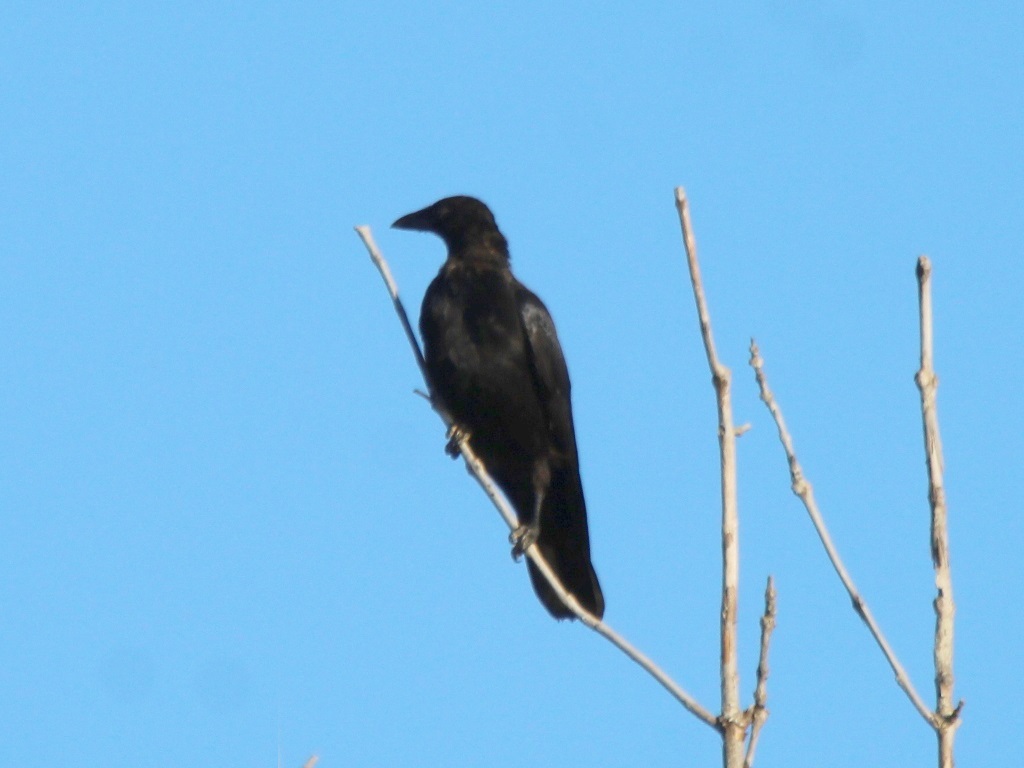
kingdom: Animalia
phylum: Chordata
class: Aves
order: Passeriformes
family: Corvidae
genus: Corvus
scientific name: Corvus corone
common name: Carrion crow
